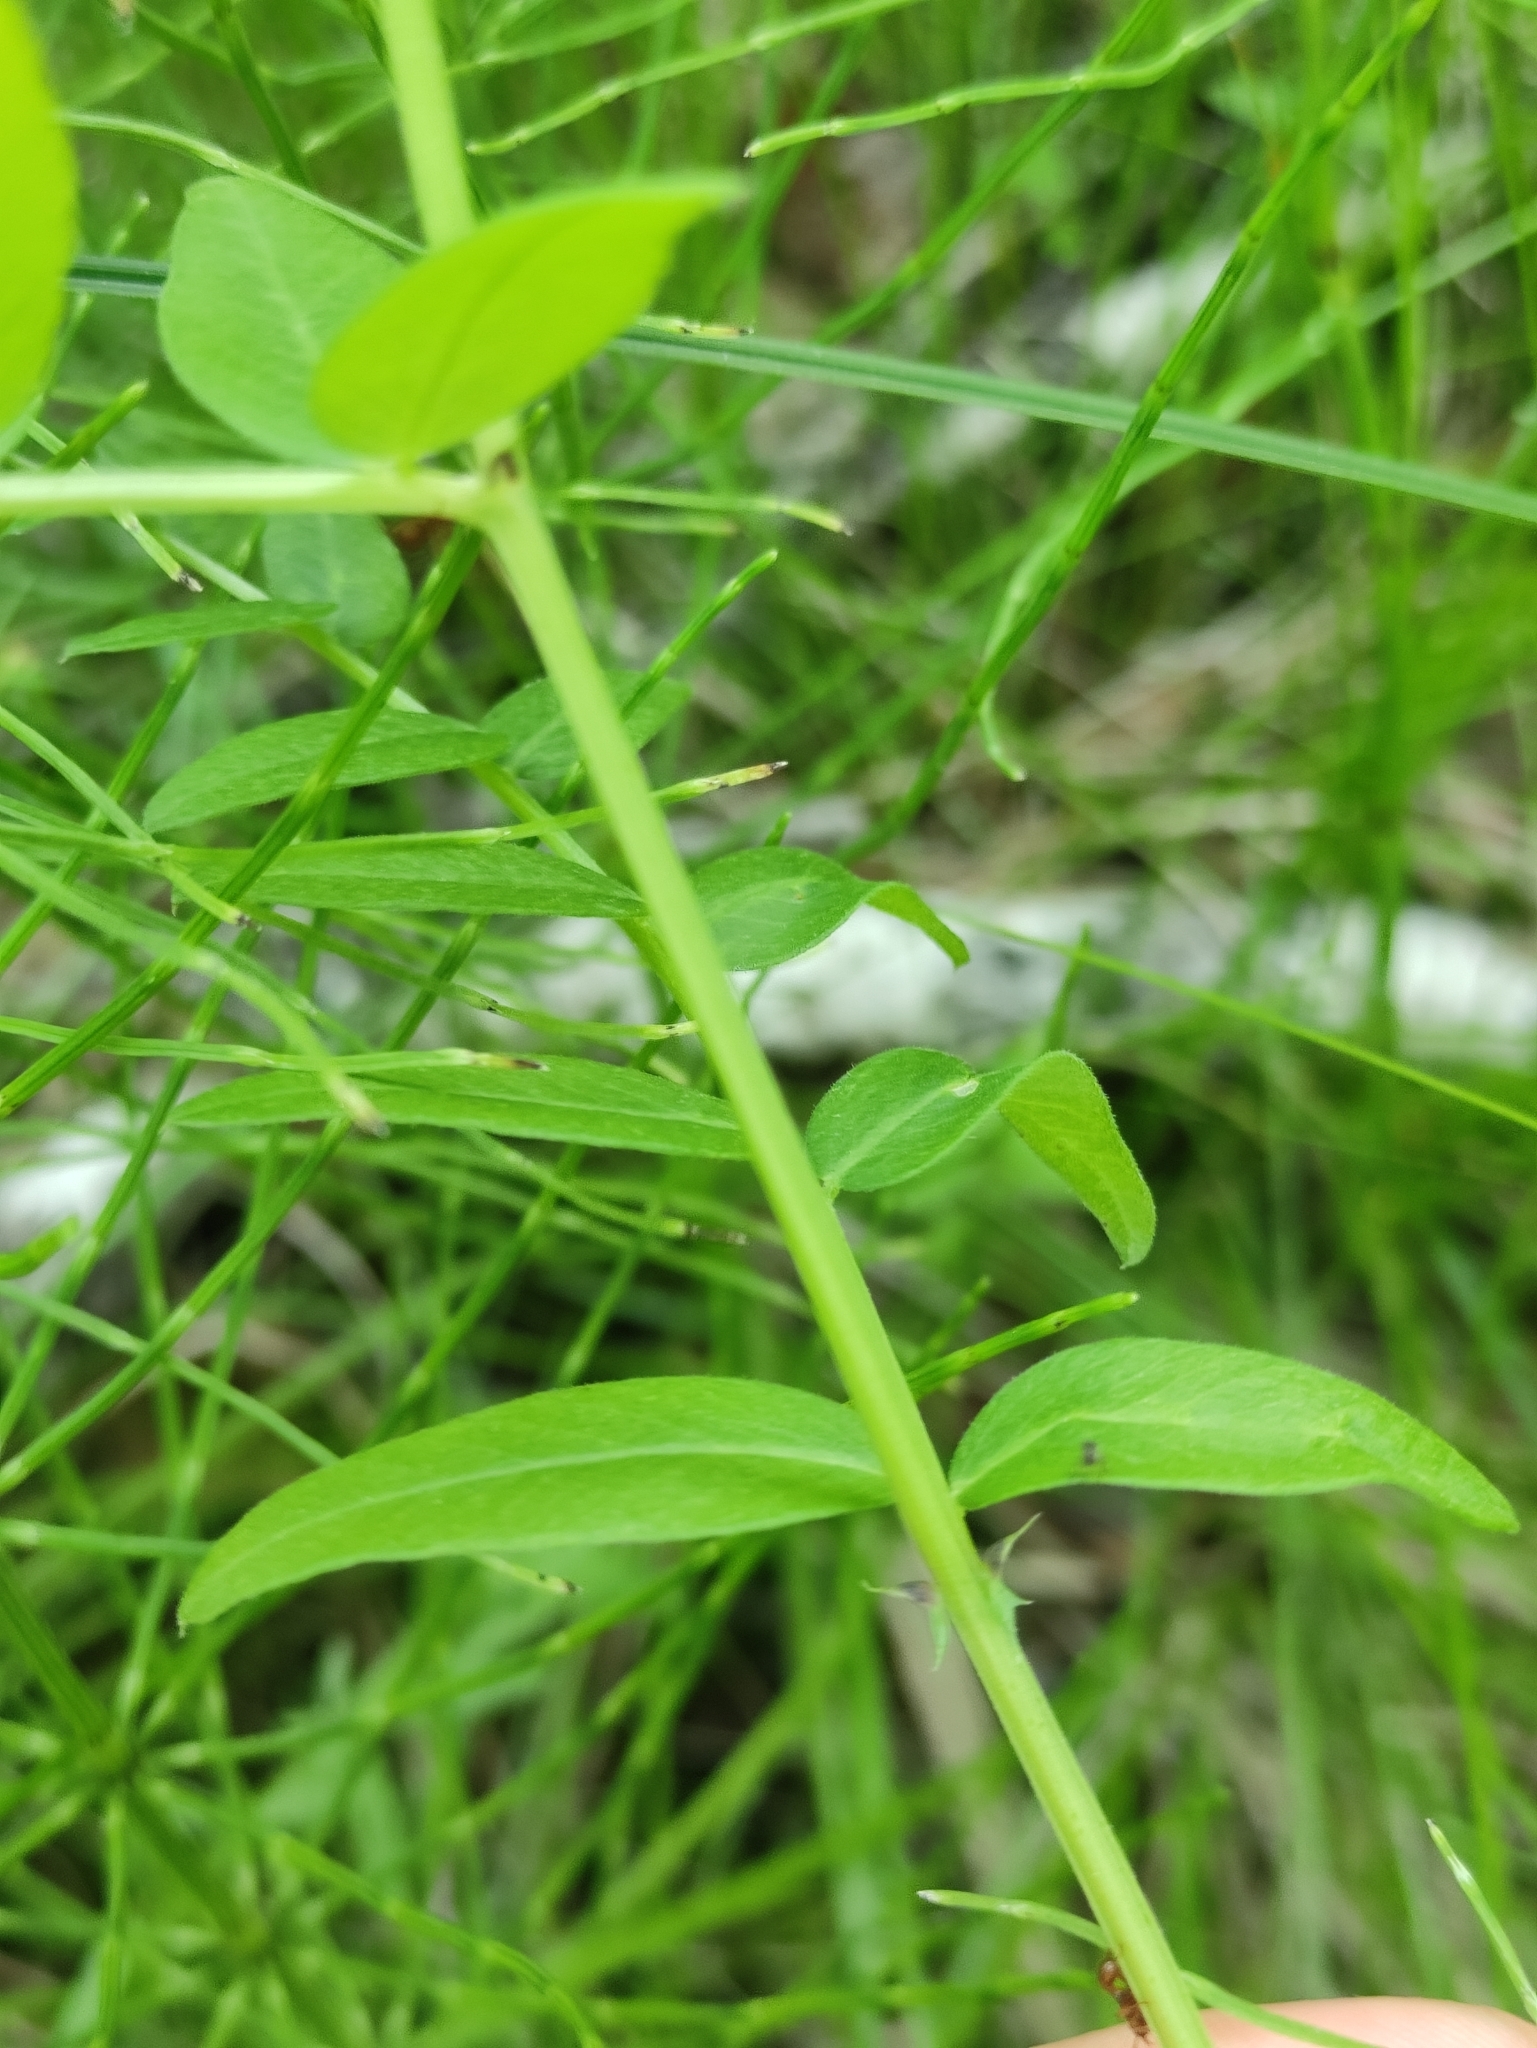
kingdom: Plantae
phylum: Tracheophyta
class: Magnoliopsida
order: Fabales
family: Fabaceae
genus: Vicia
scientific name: Vicia sepium
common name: Bush vetch
